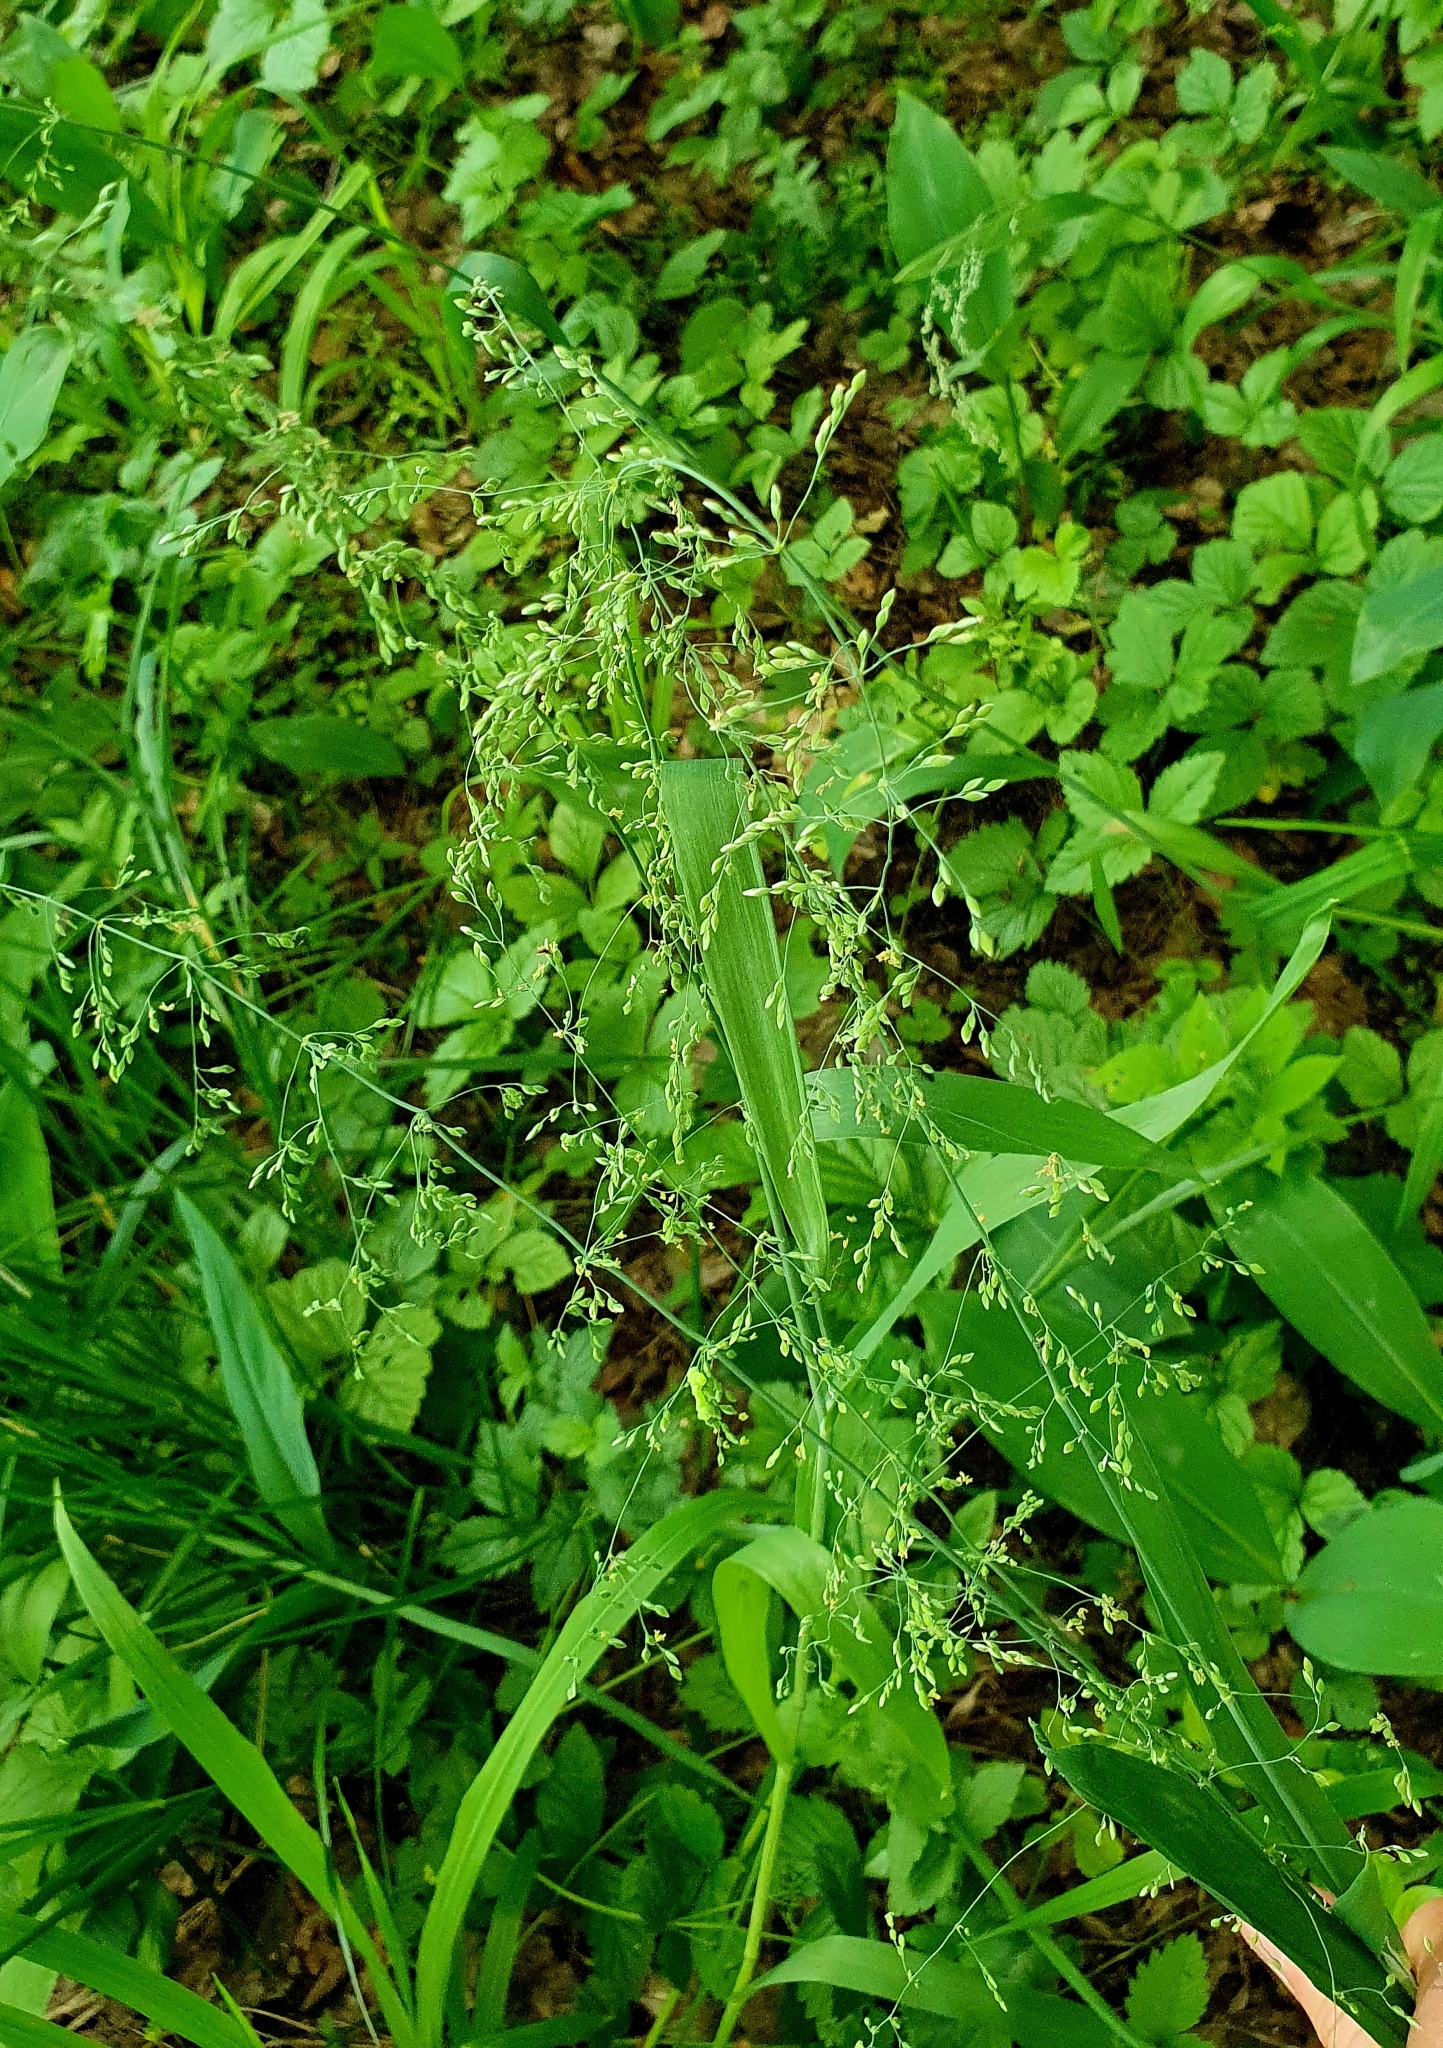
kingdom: Plantae
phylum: Tracheophyta
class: Liliopsida
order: Poales
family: Poaceae
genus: Milium
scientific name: Milium effusum
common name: Wood millet
